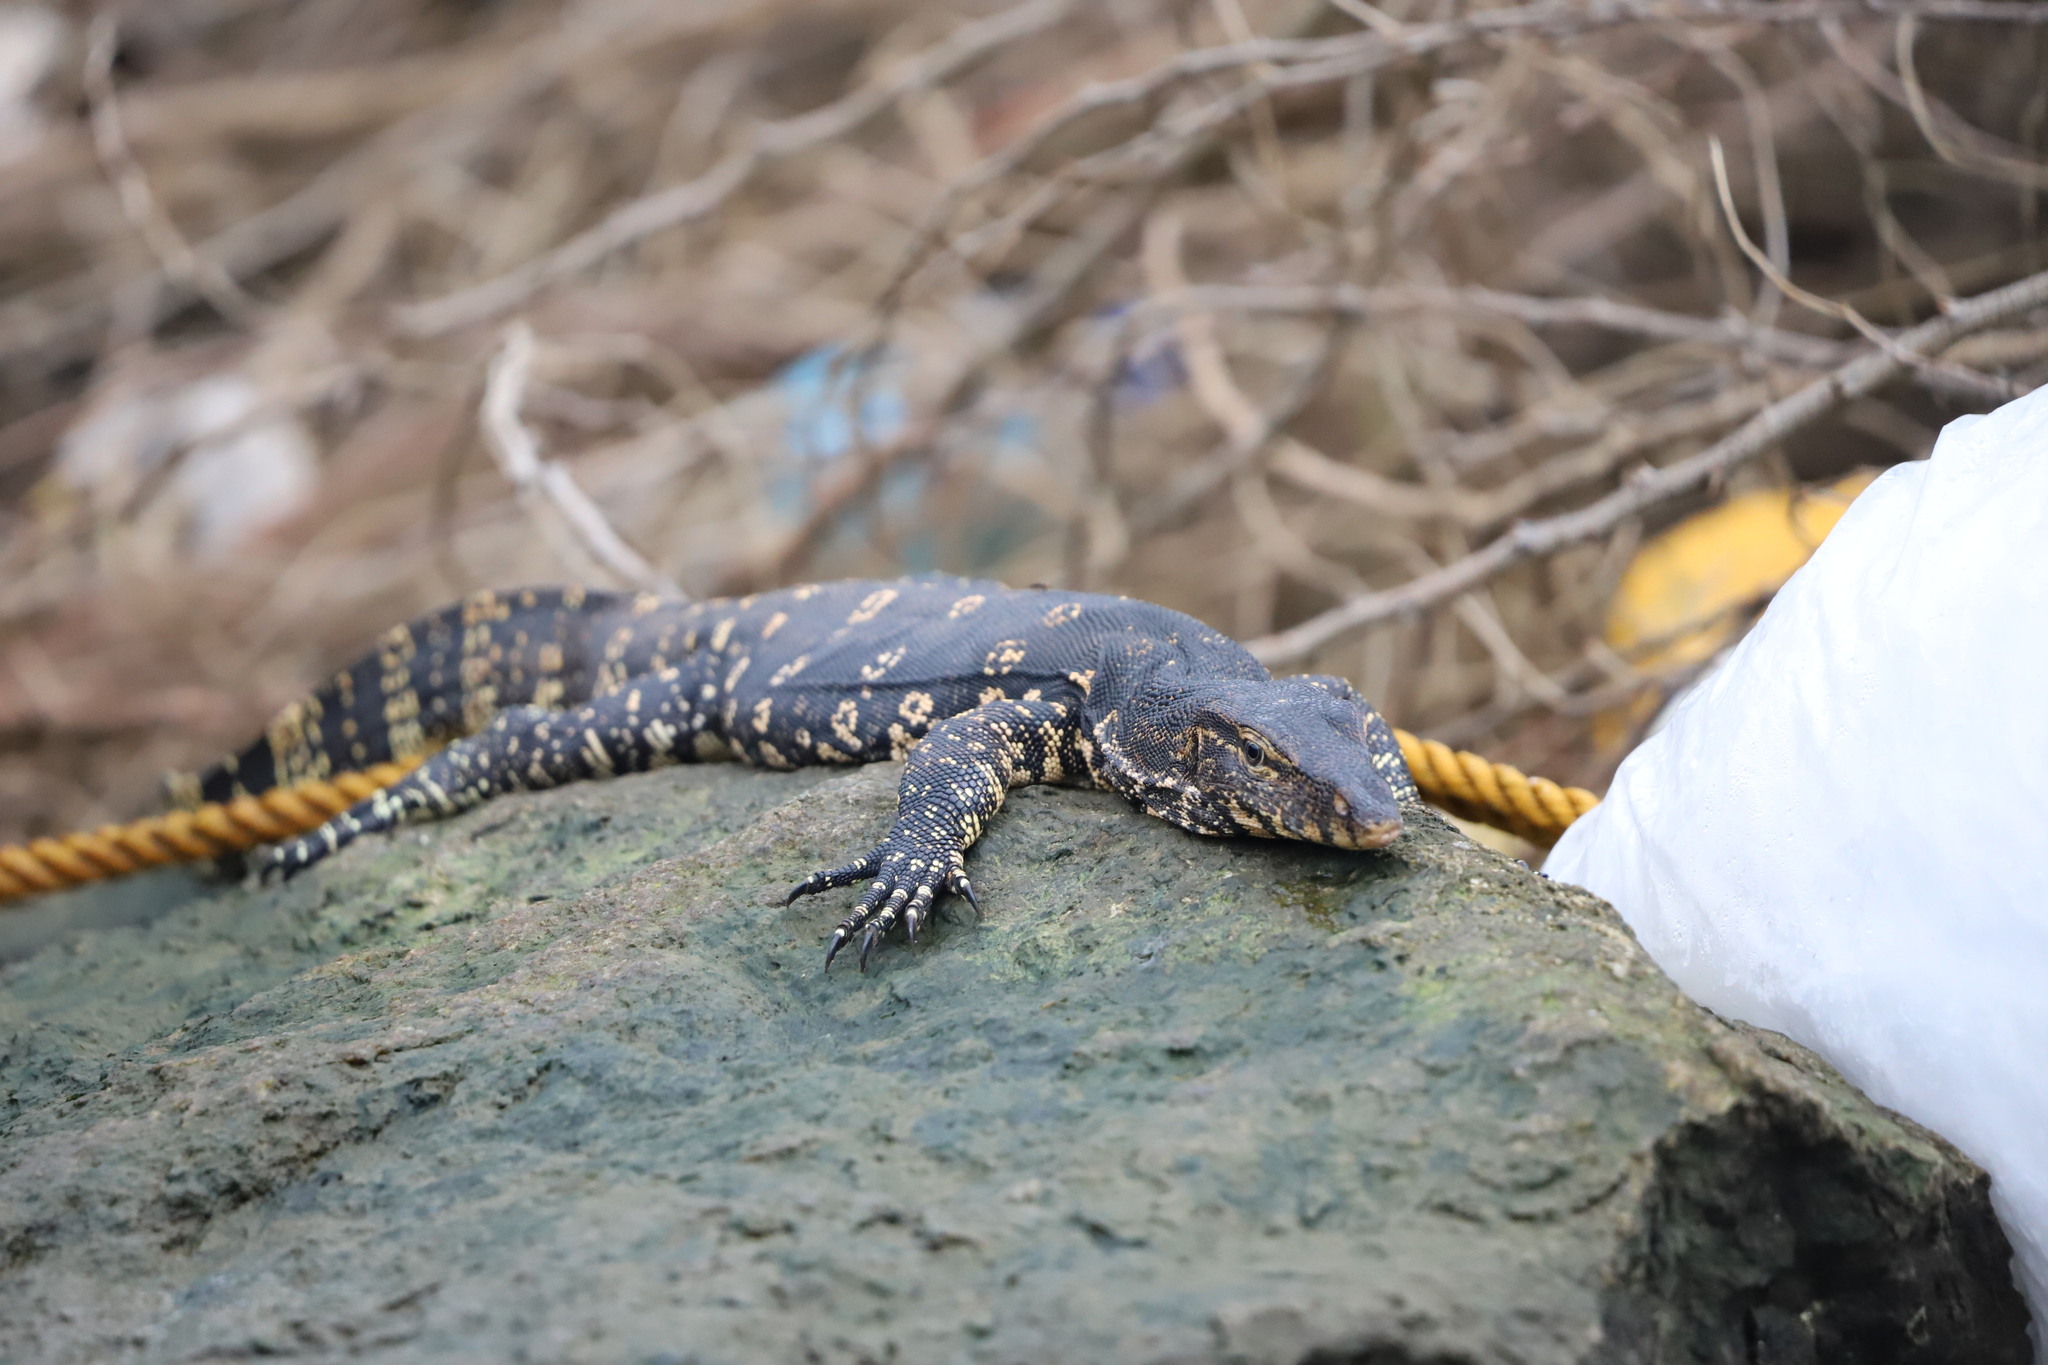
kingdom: Animalia
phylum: Chordata
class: Squamata
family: Varanidae
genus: Varanus
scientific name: Varanus salvator
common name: Common water monitor
